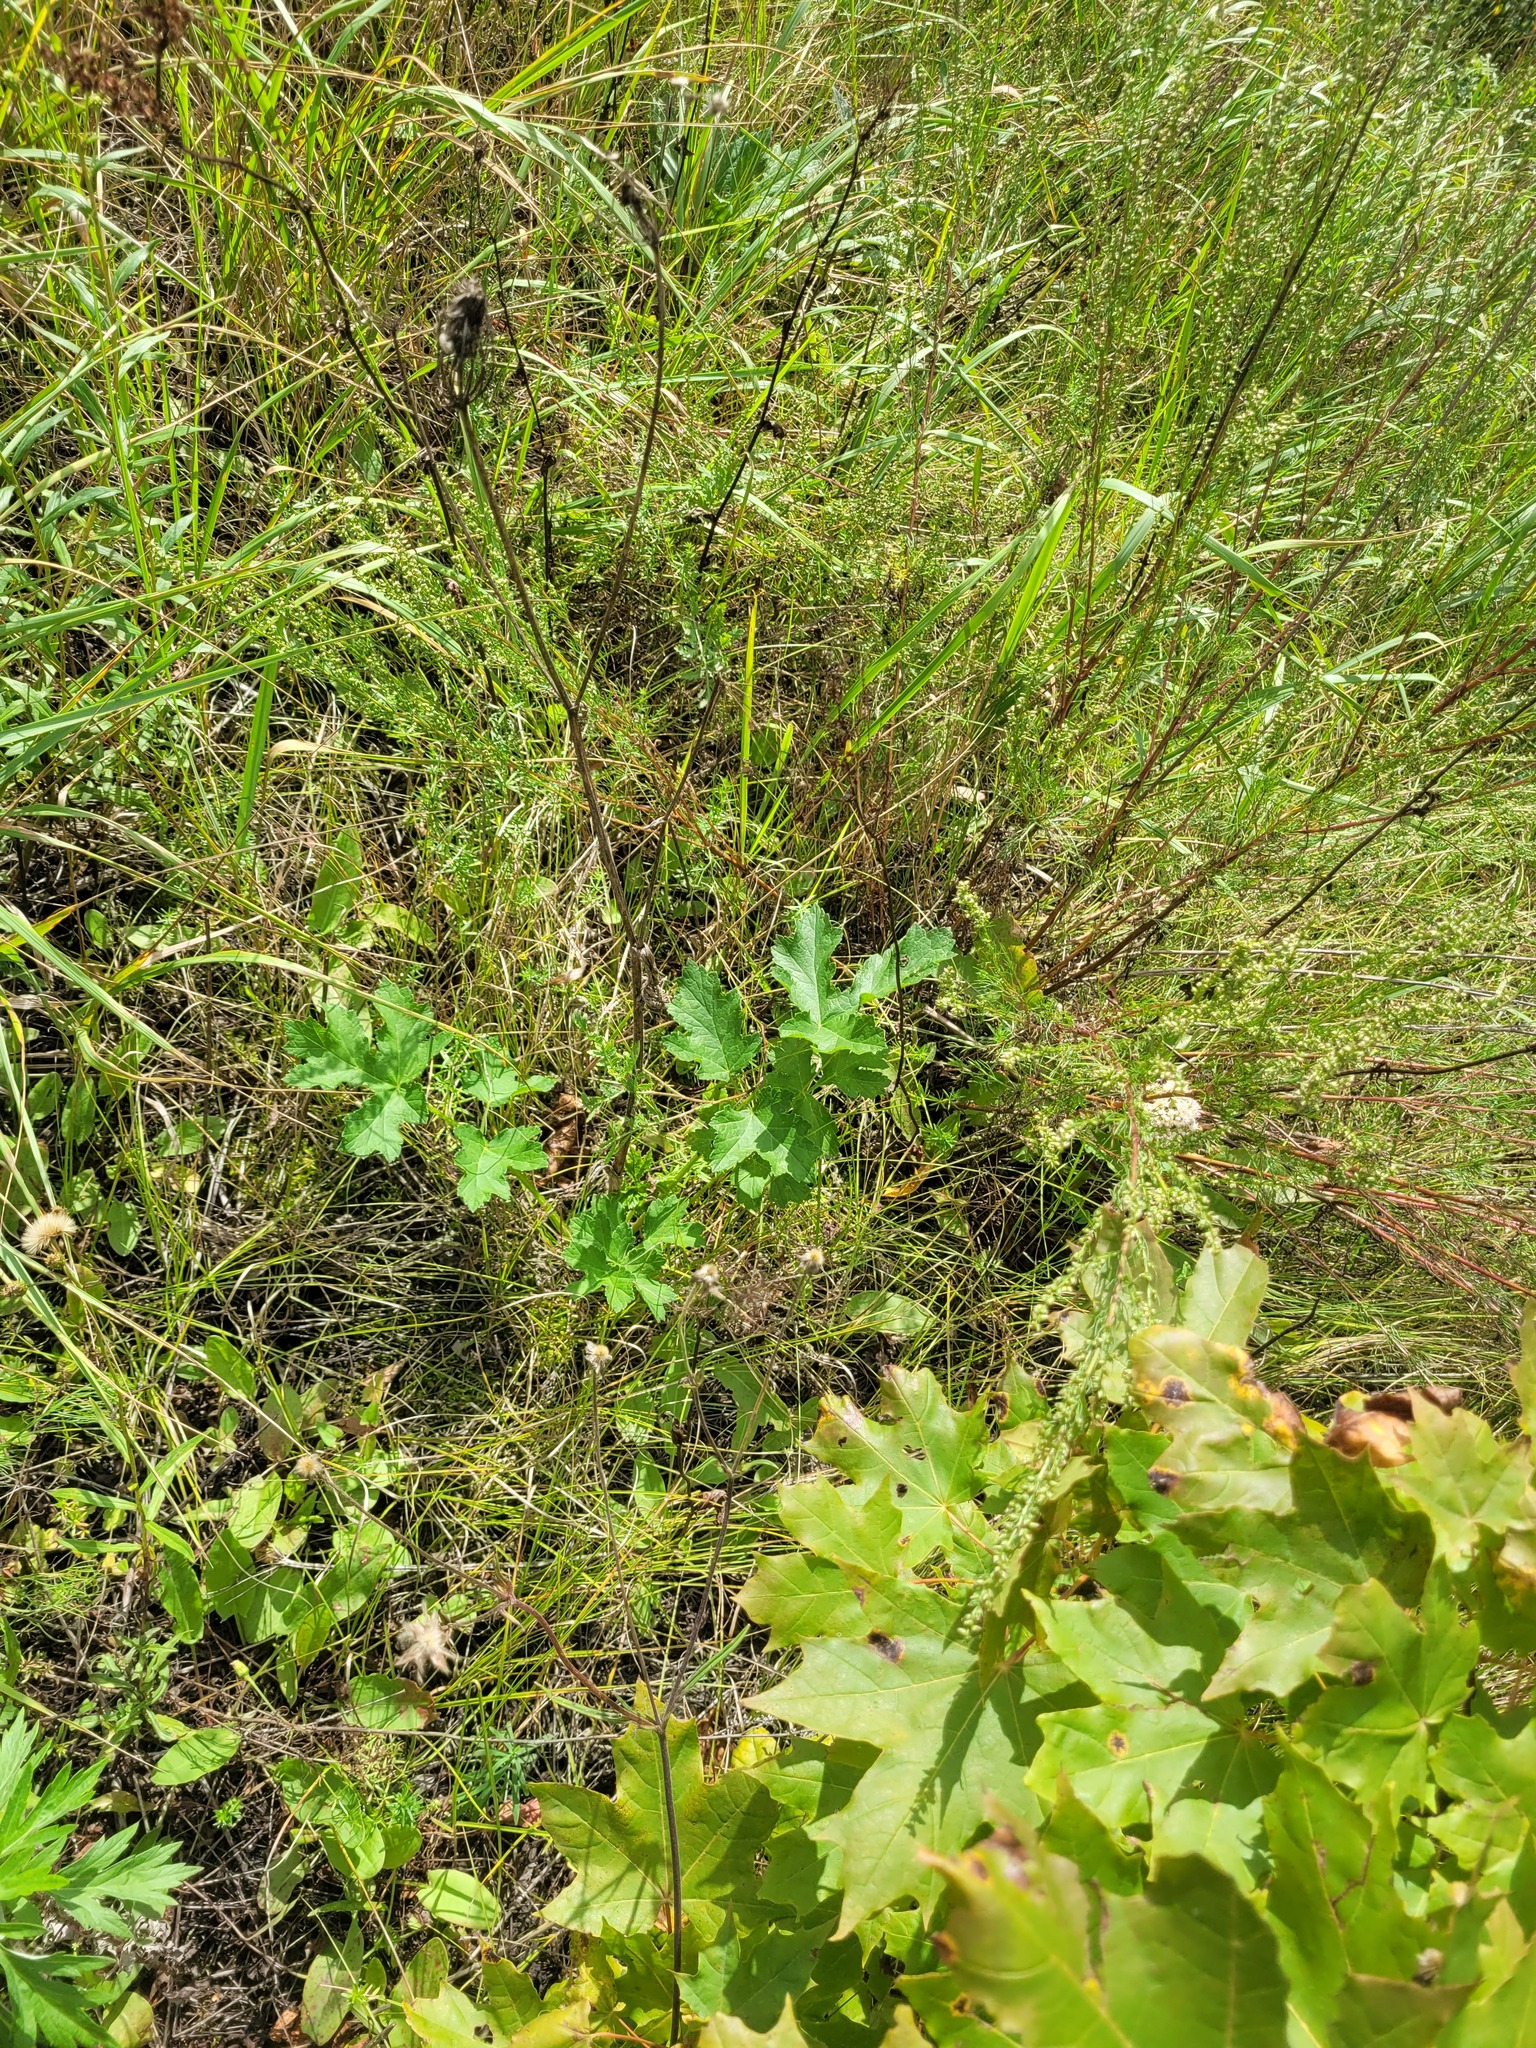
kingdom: Plantae
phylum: Tracheophyta
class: Magnoliopsida
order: Apiales
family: Apiaceae
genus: Heracleum
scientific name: Heracleum sphondylium
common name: Hogweed
